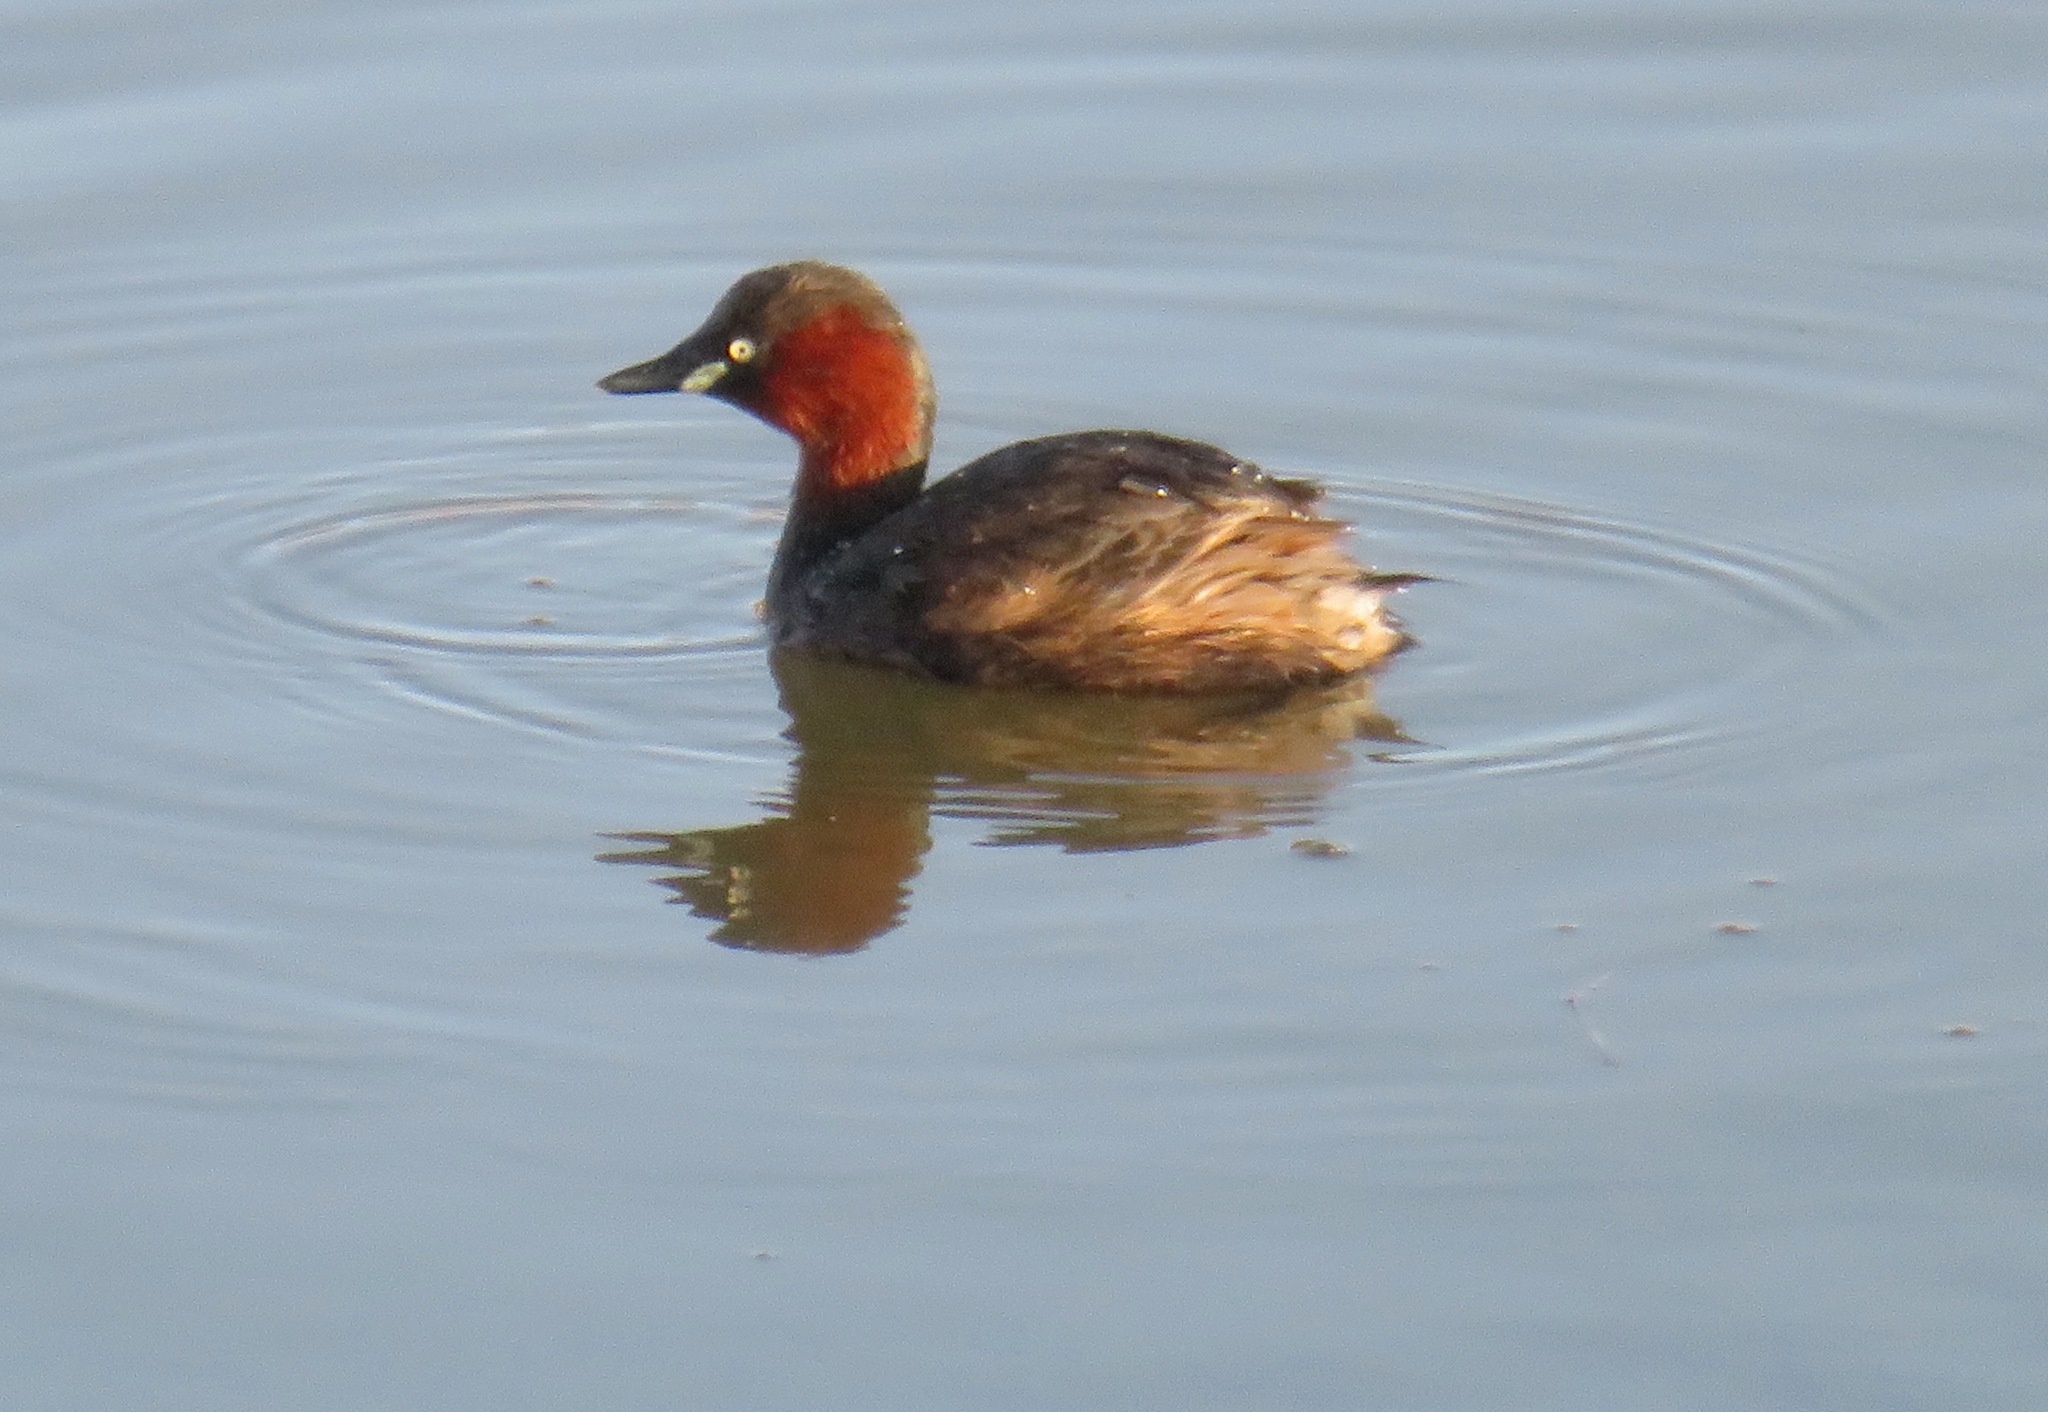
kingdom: Animalia
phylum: Chordata
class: Aves
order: Podicipediformes
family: Podicipedidae
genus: Tachybaptus
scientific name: Tachybaptus ruficollis
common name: Little grebe
